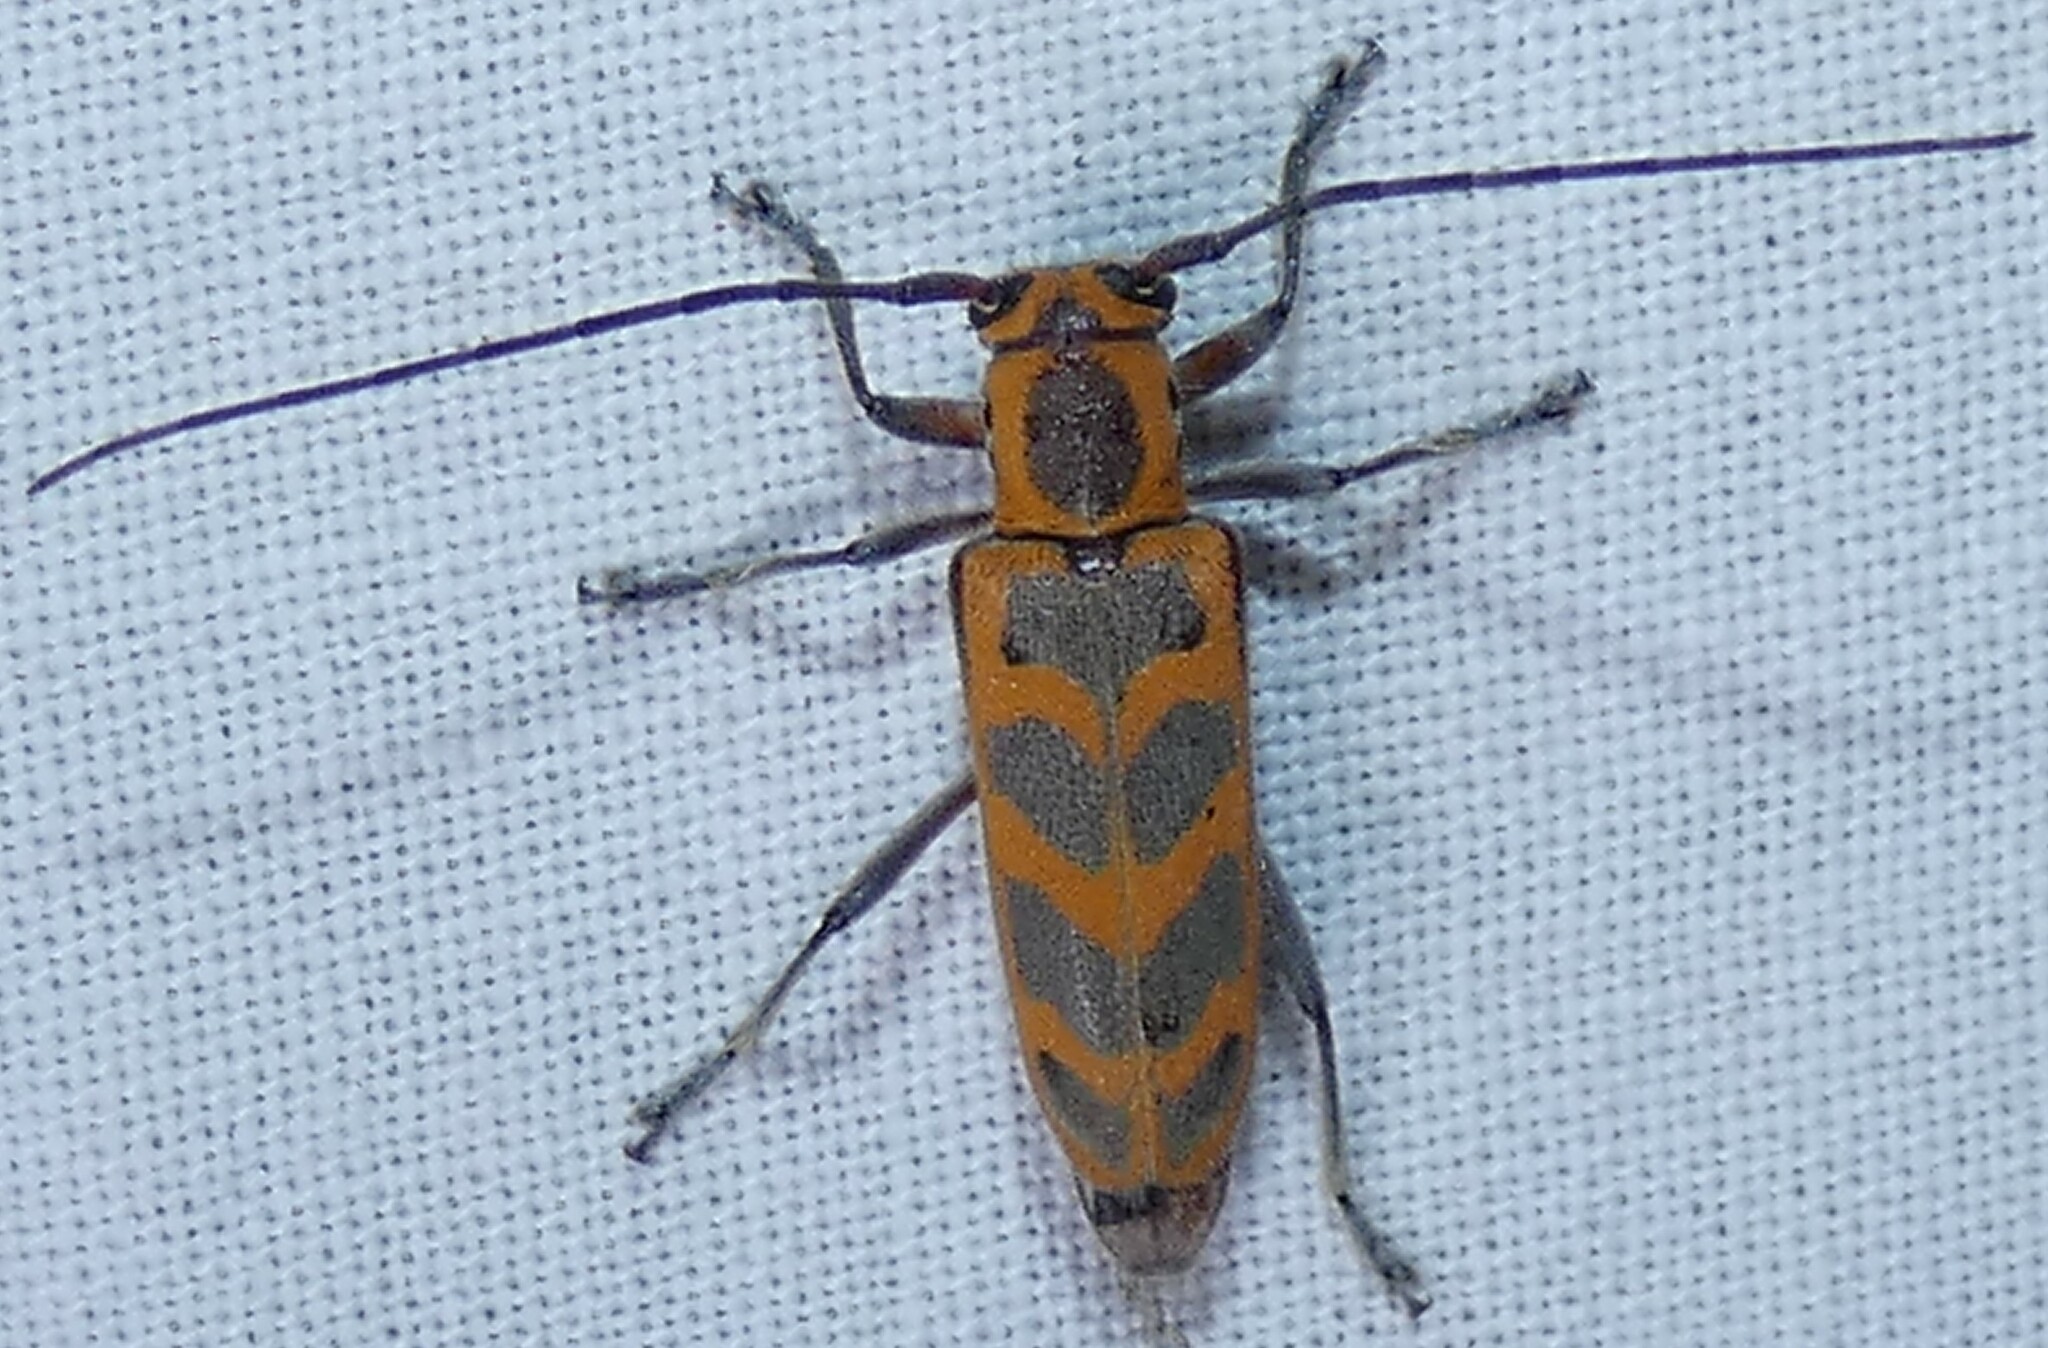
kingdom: Animalia
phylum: Arthropoda
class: Insecta
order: Coleoptera
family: Cerambycidae
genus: Saperda
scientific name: Saperda tridentata
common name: Elm borer
